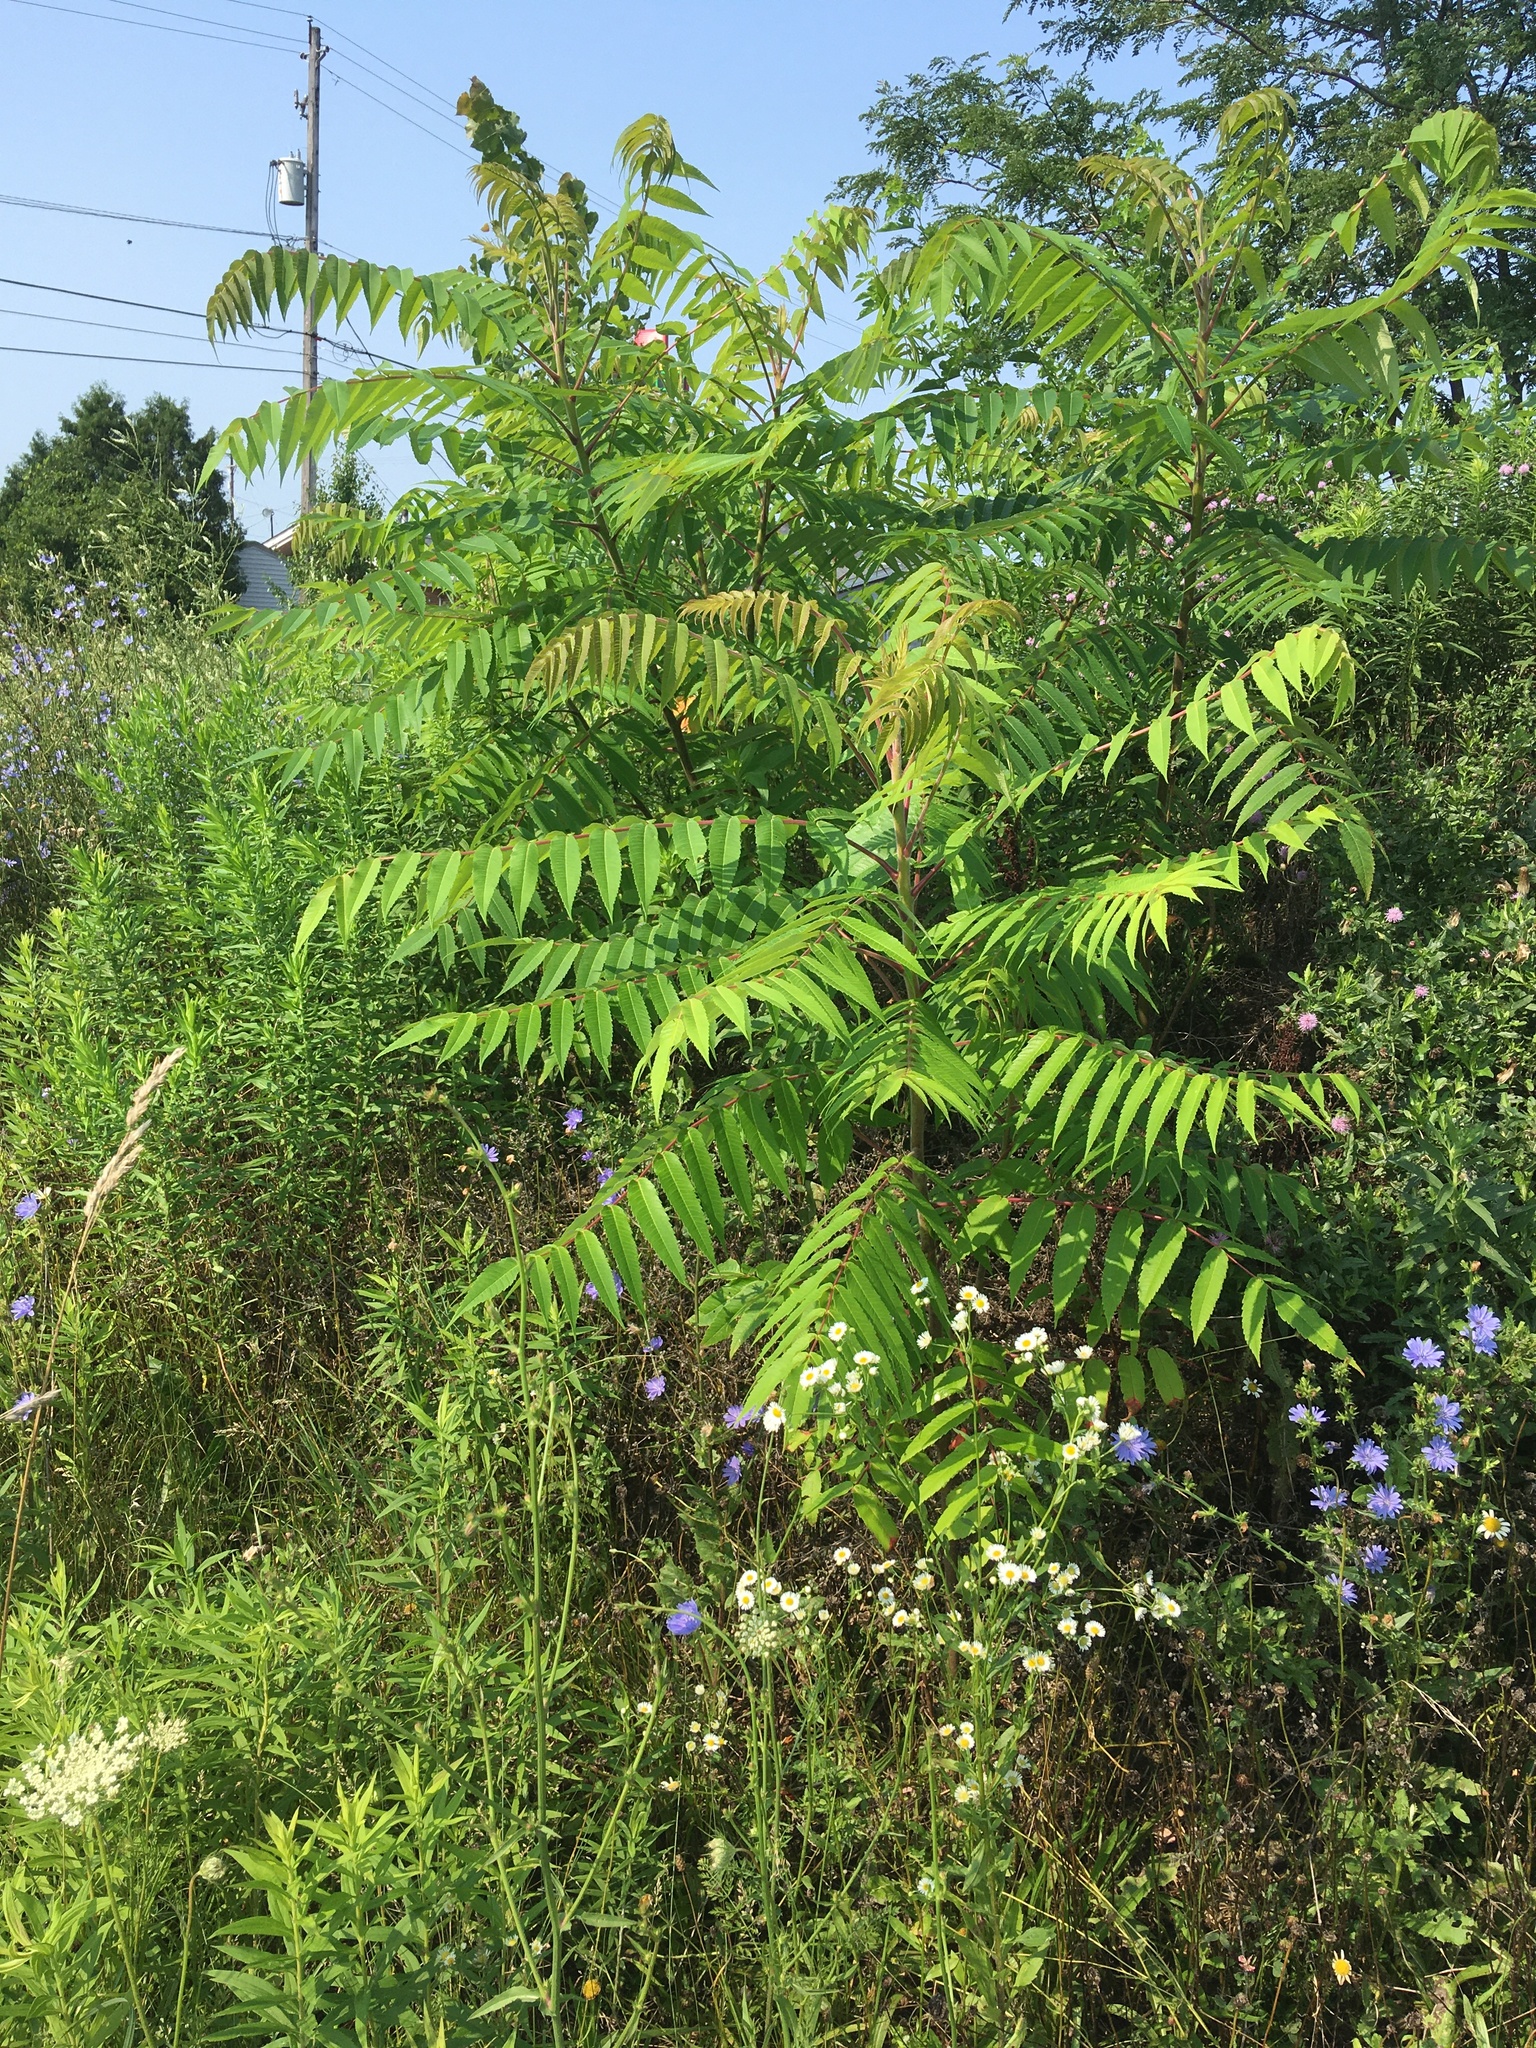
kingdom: Plantae
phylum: Tracheophyta
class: Magnoliopsida
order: Sapindales
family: Anacardiaceae
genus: Rhus
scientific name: Rhus typhina
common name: Staghorn sumac
